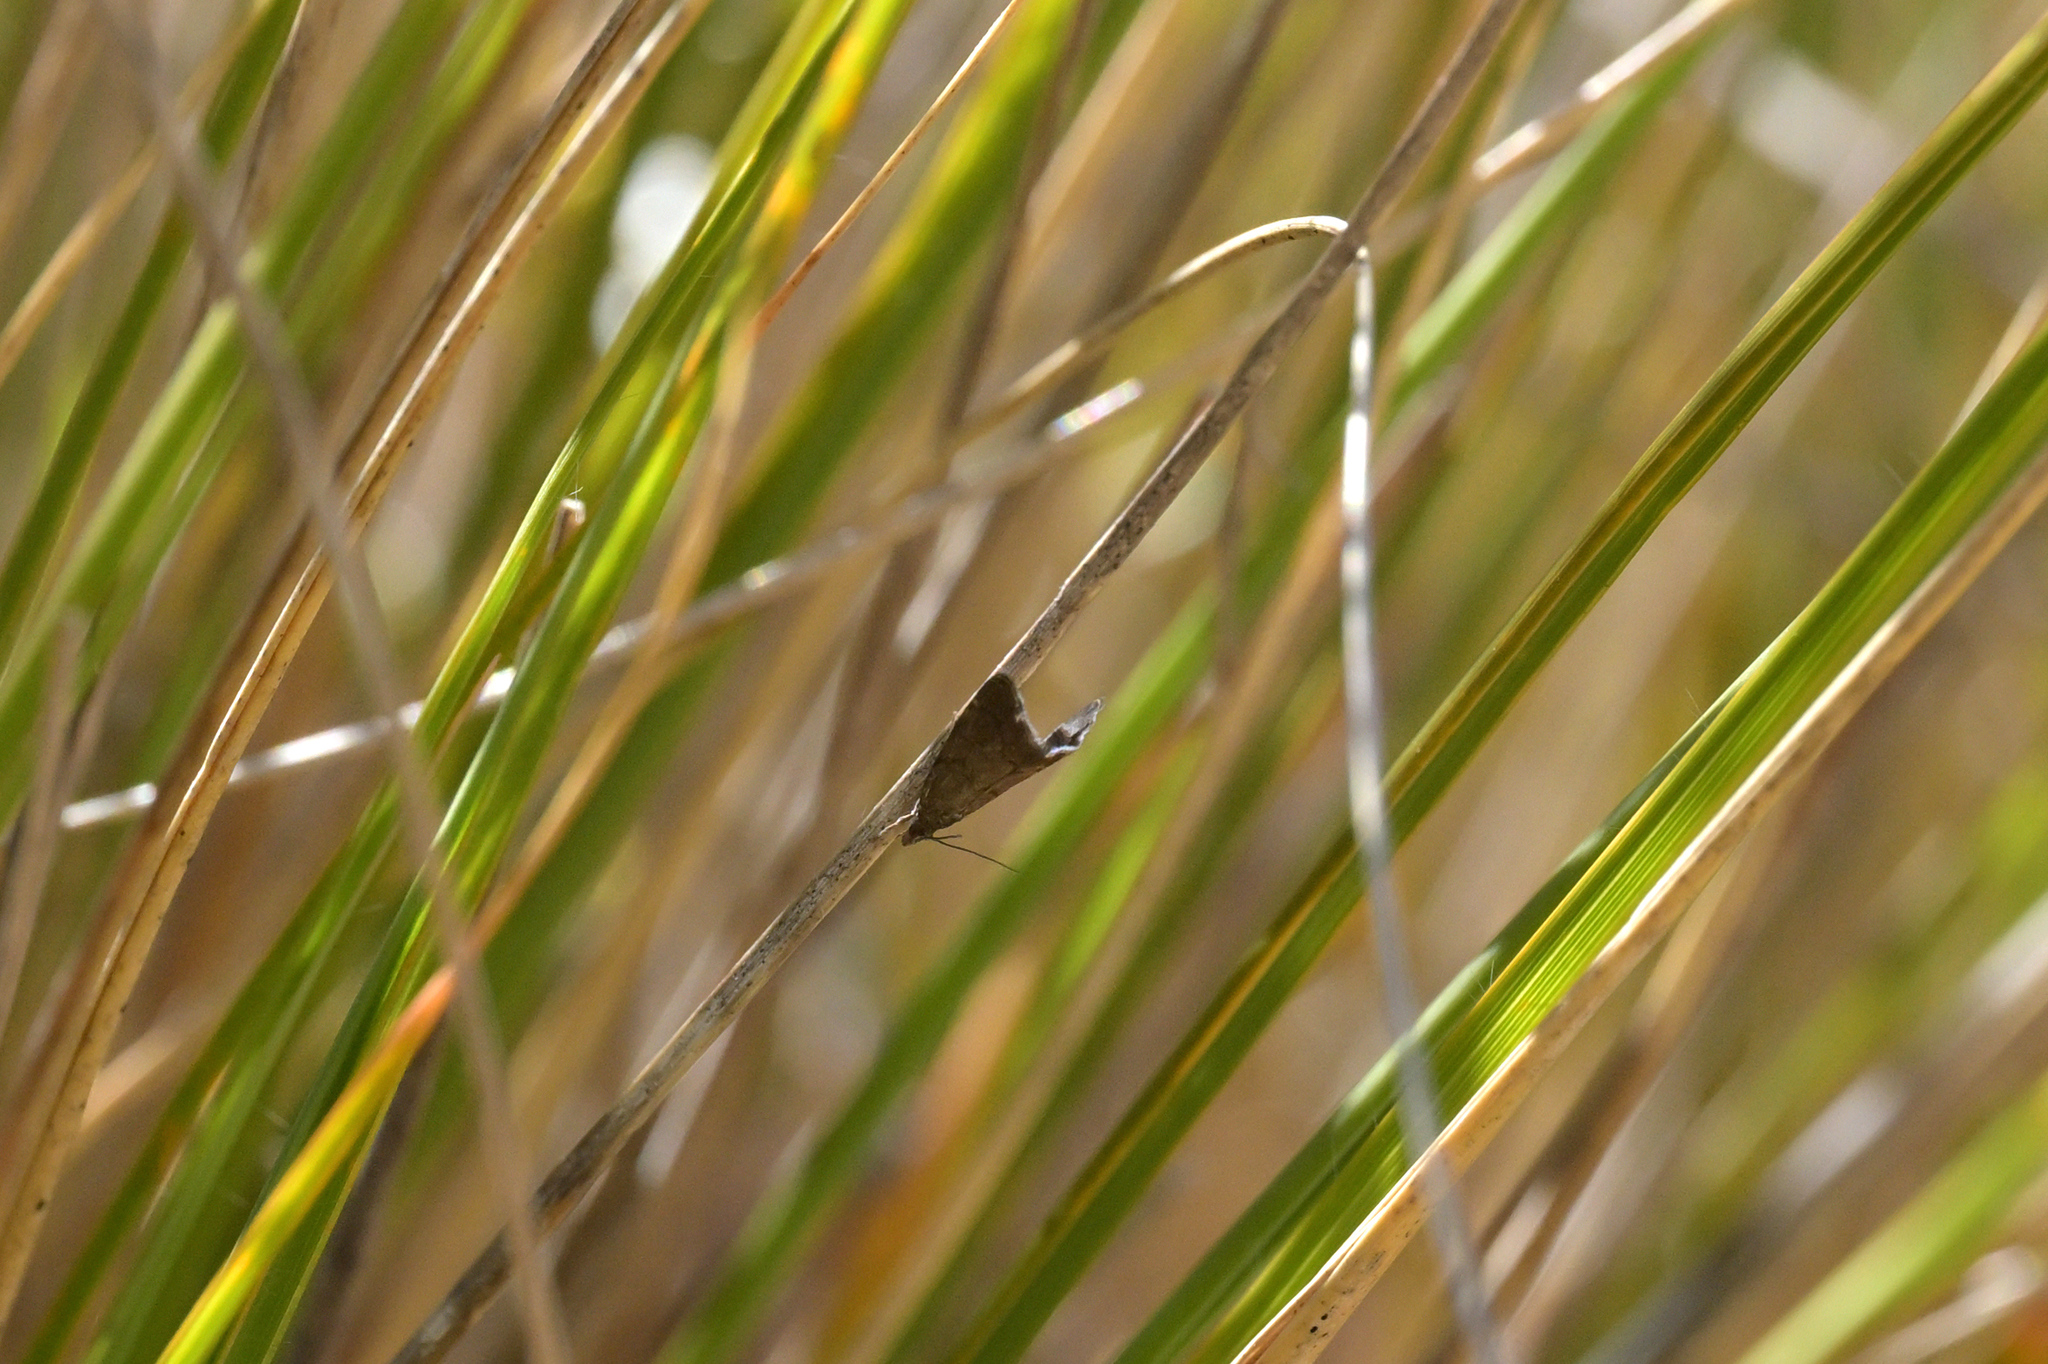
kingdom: Animalia
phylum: Arthropoda
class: Insecta
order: Lepidoptera
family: Crambidae
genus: Glaucocharis
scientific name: Glaucocharis epiphaea
